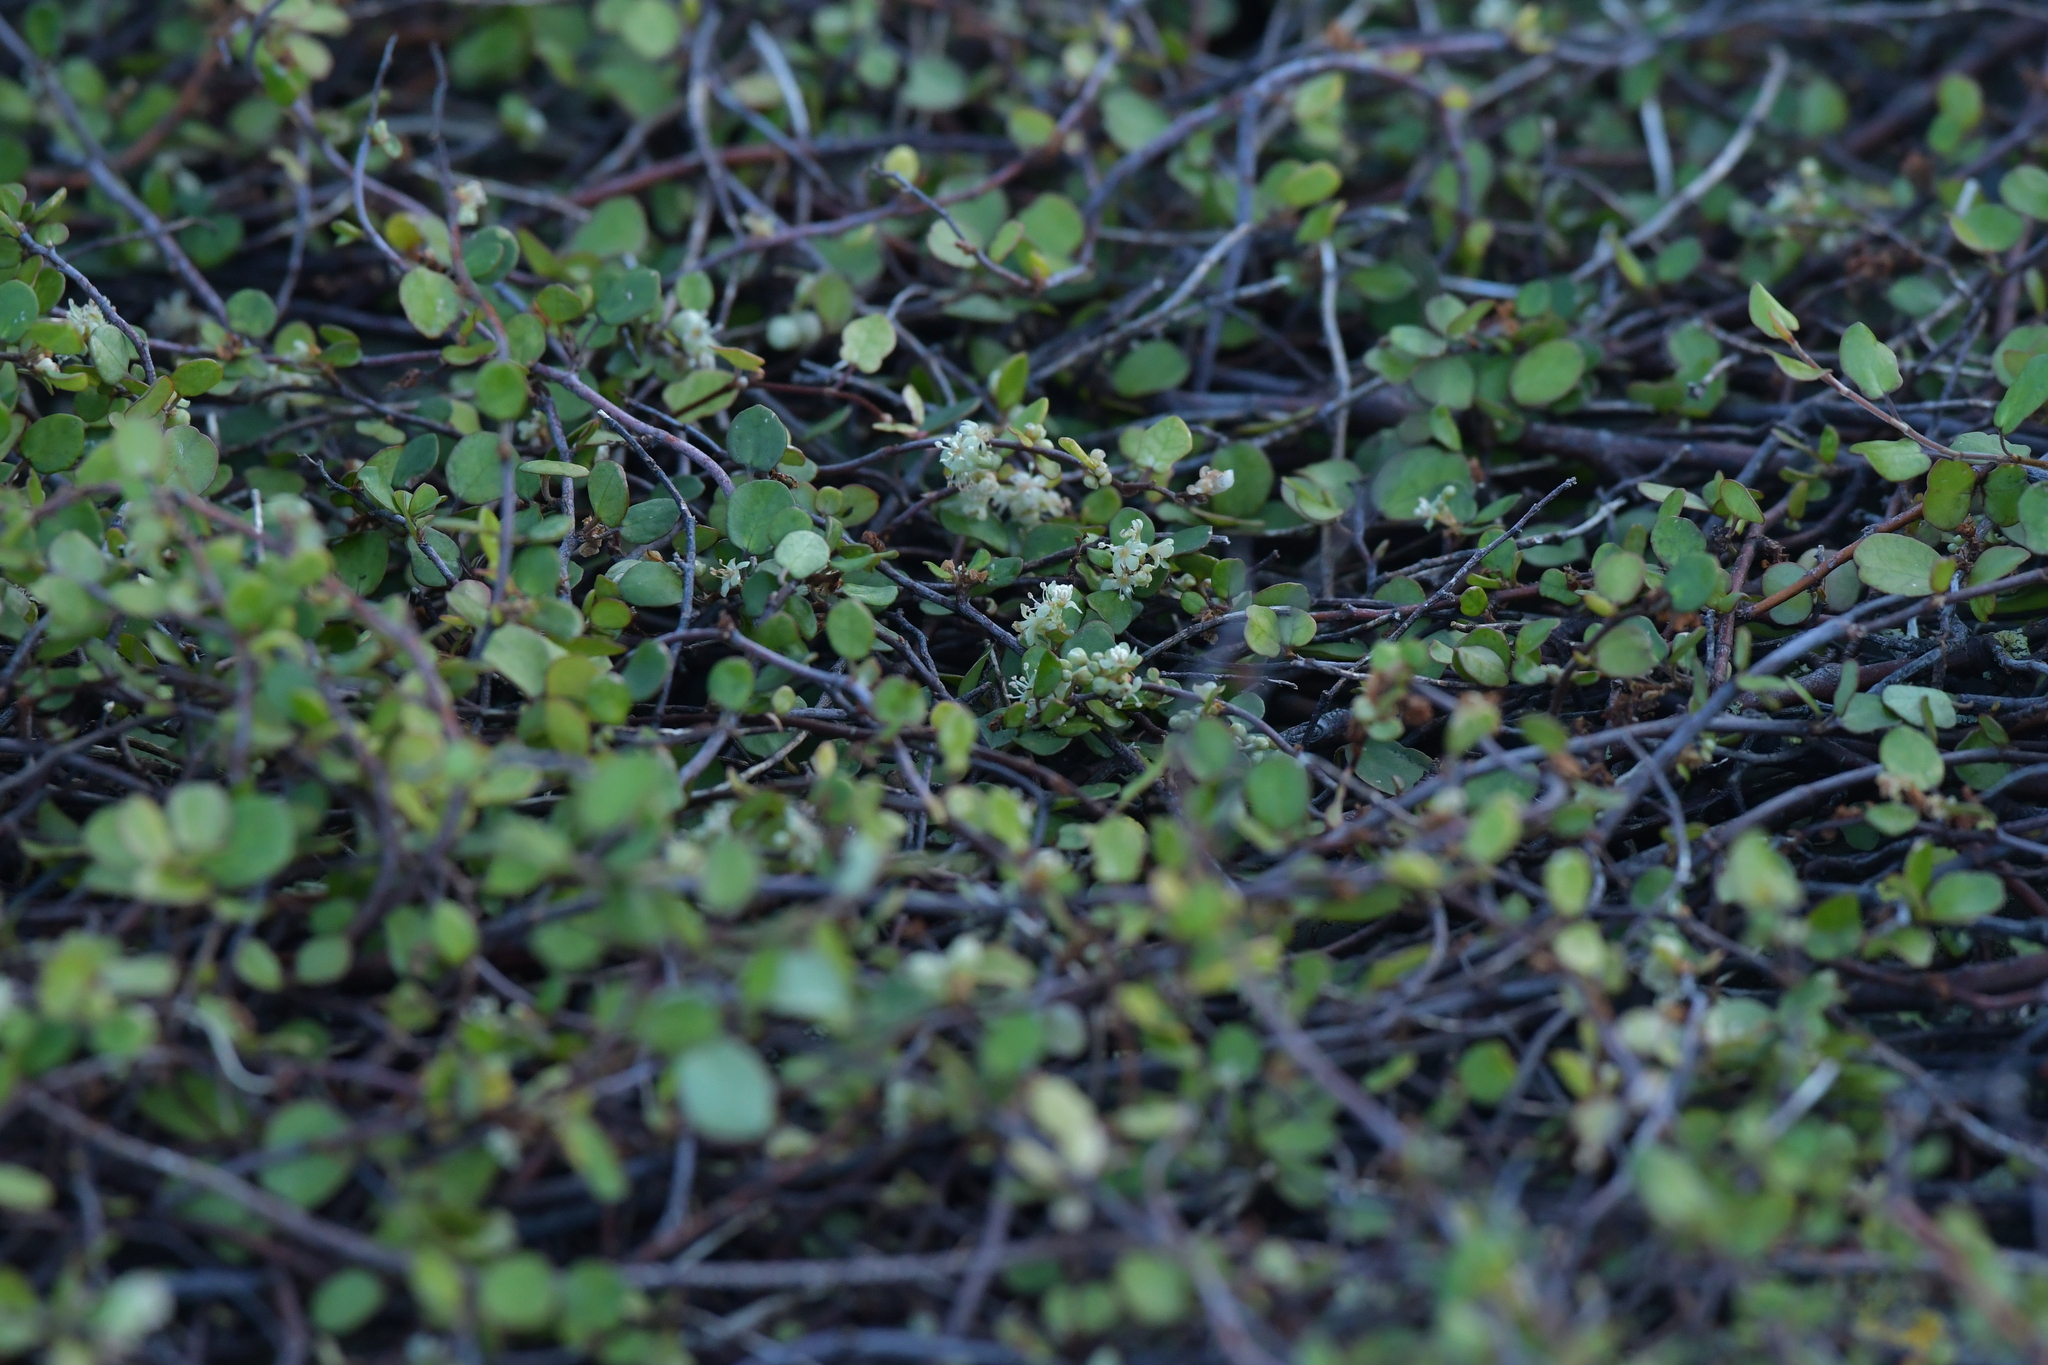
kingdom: Plantae
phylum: Tracheophyta
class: Magnoliopsida
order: Caryophyllales
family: Polygonaceae
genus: Muehlenbeckia
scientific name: Muehlenbeckia complexa
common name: Wireplant
